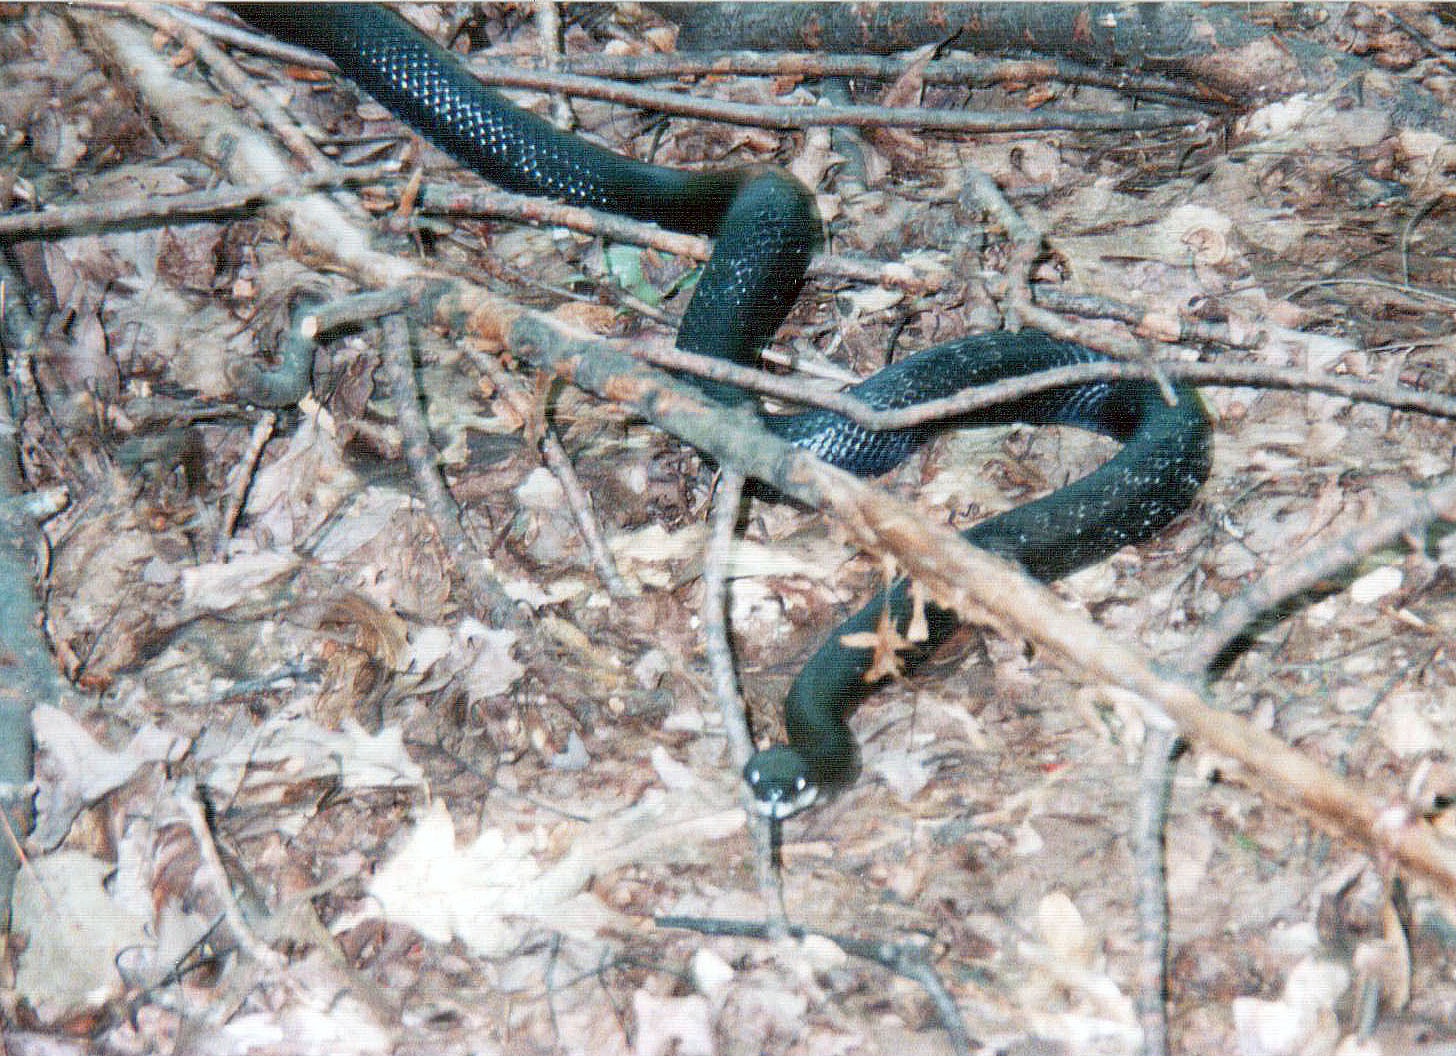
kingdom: Animalia
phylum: Chordata
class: Squamata
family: Colubridae
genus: Pantherophis
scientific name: Pantherophis alleghaniensis
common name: Eastern rat snake
